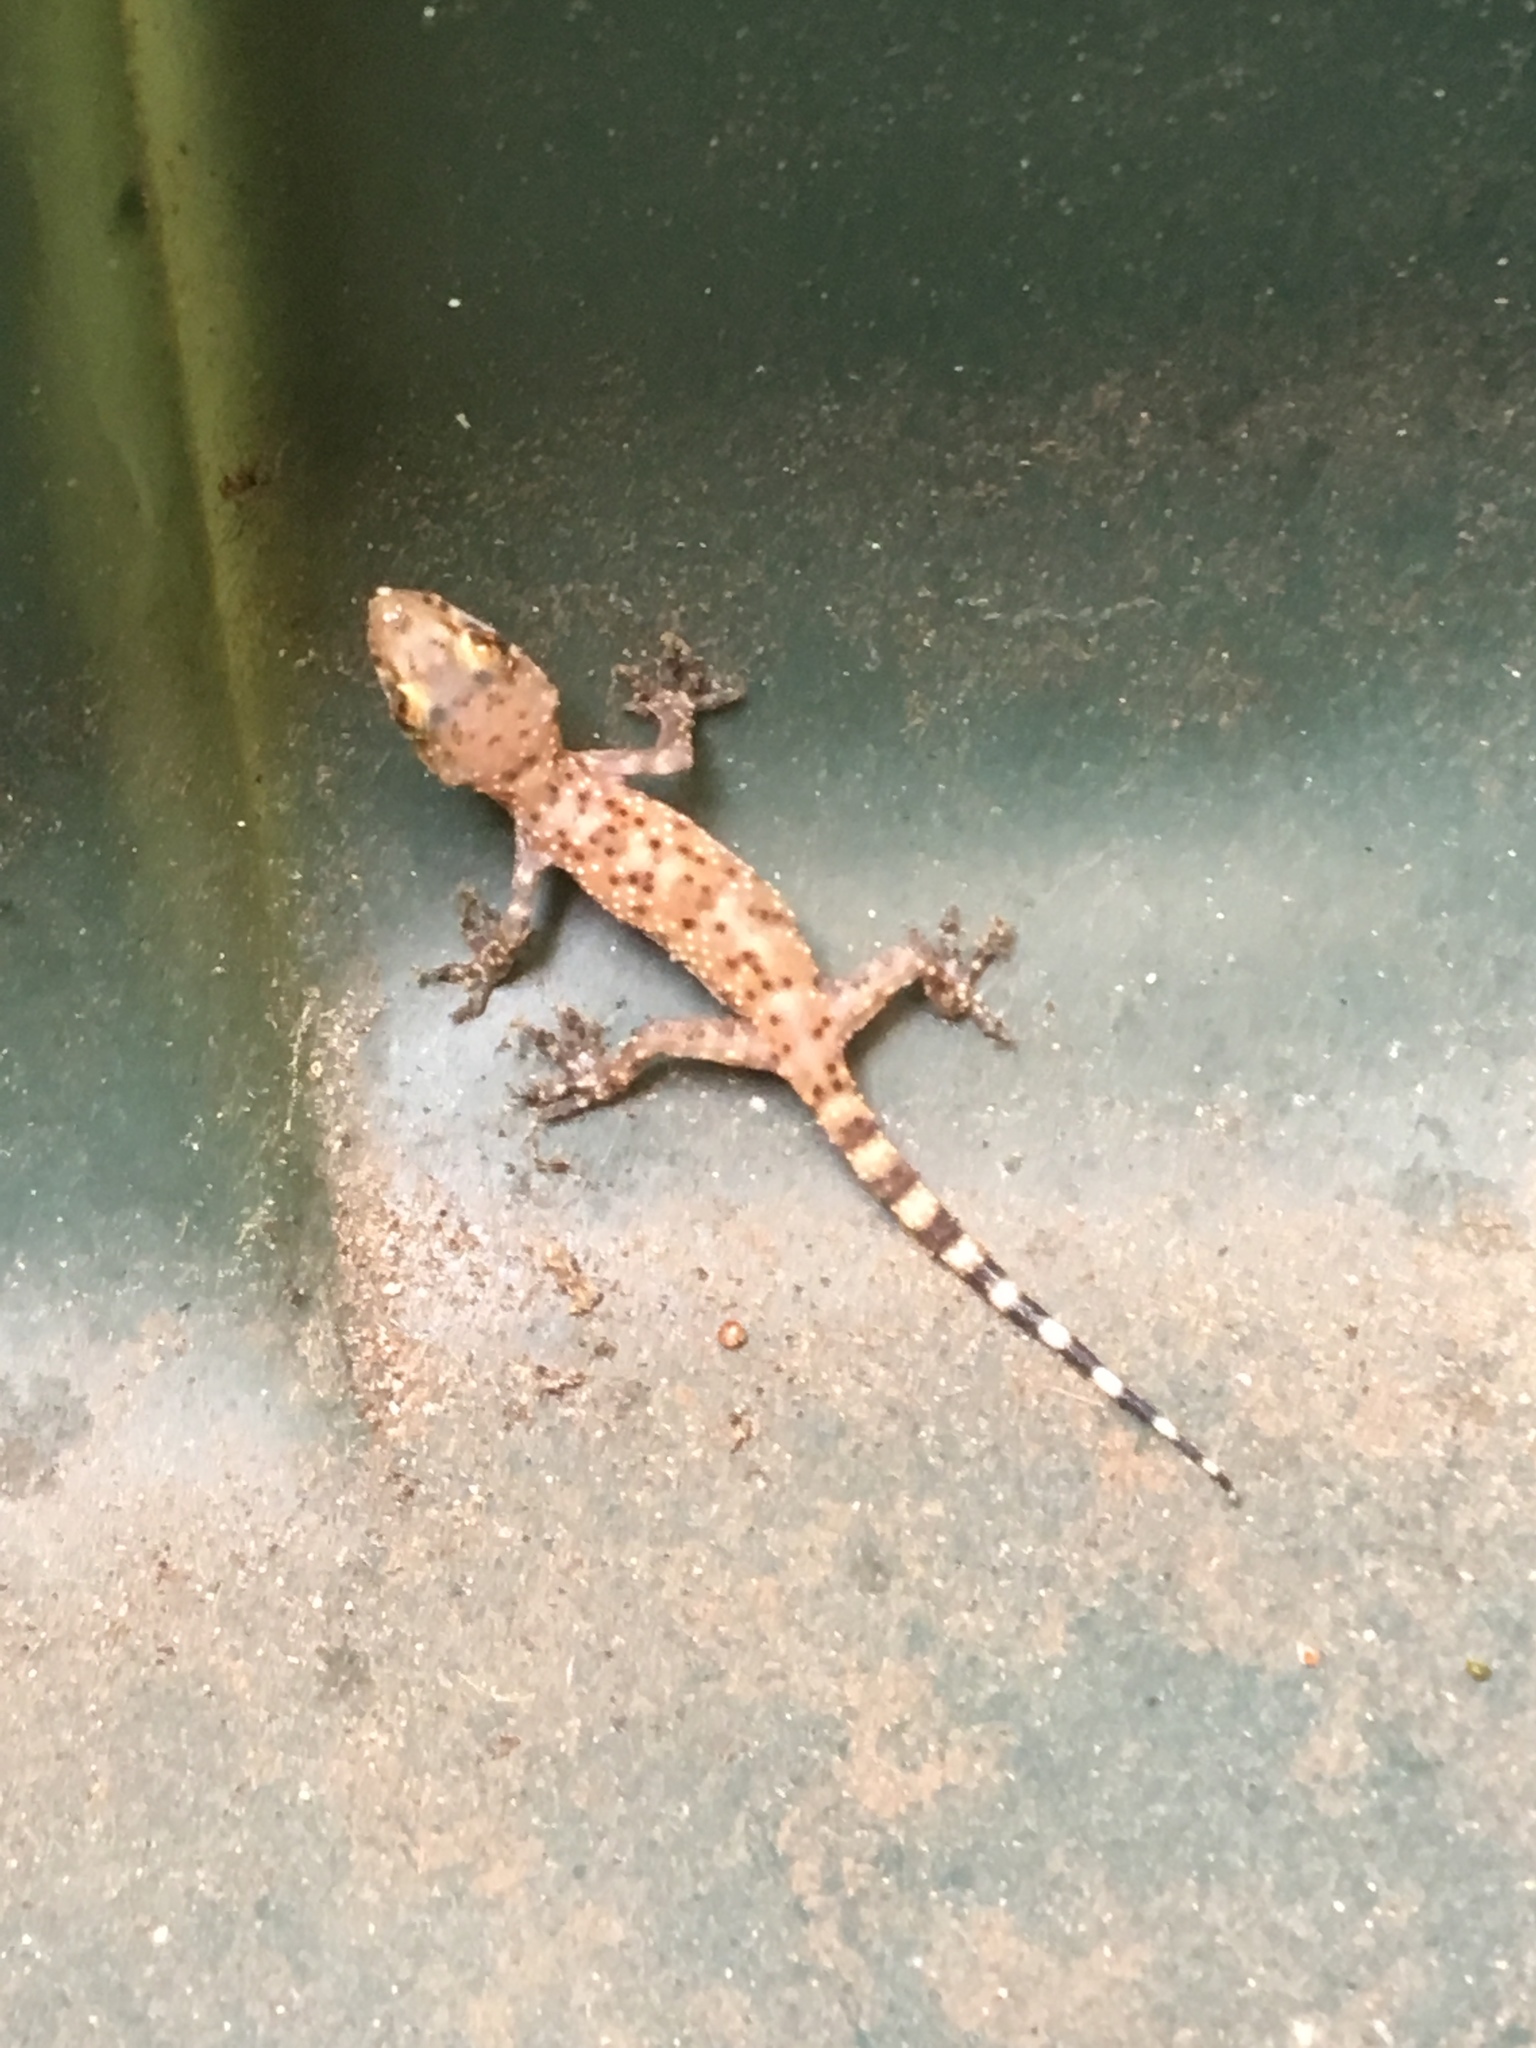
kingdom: Animalia
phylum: Chordata
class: Squamata
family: Gekkonidae
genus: Hemidactylus
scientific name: Hemidactylus turcicus
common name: Turkish gecko
